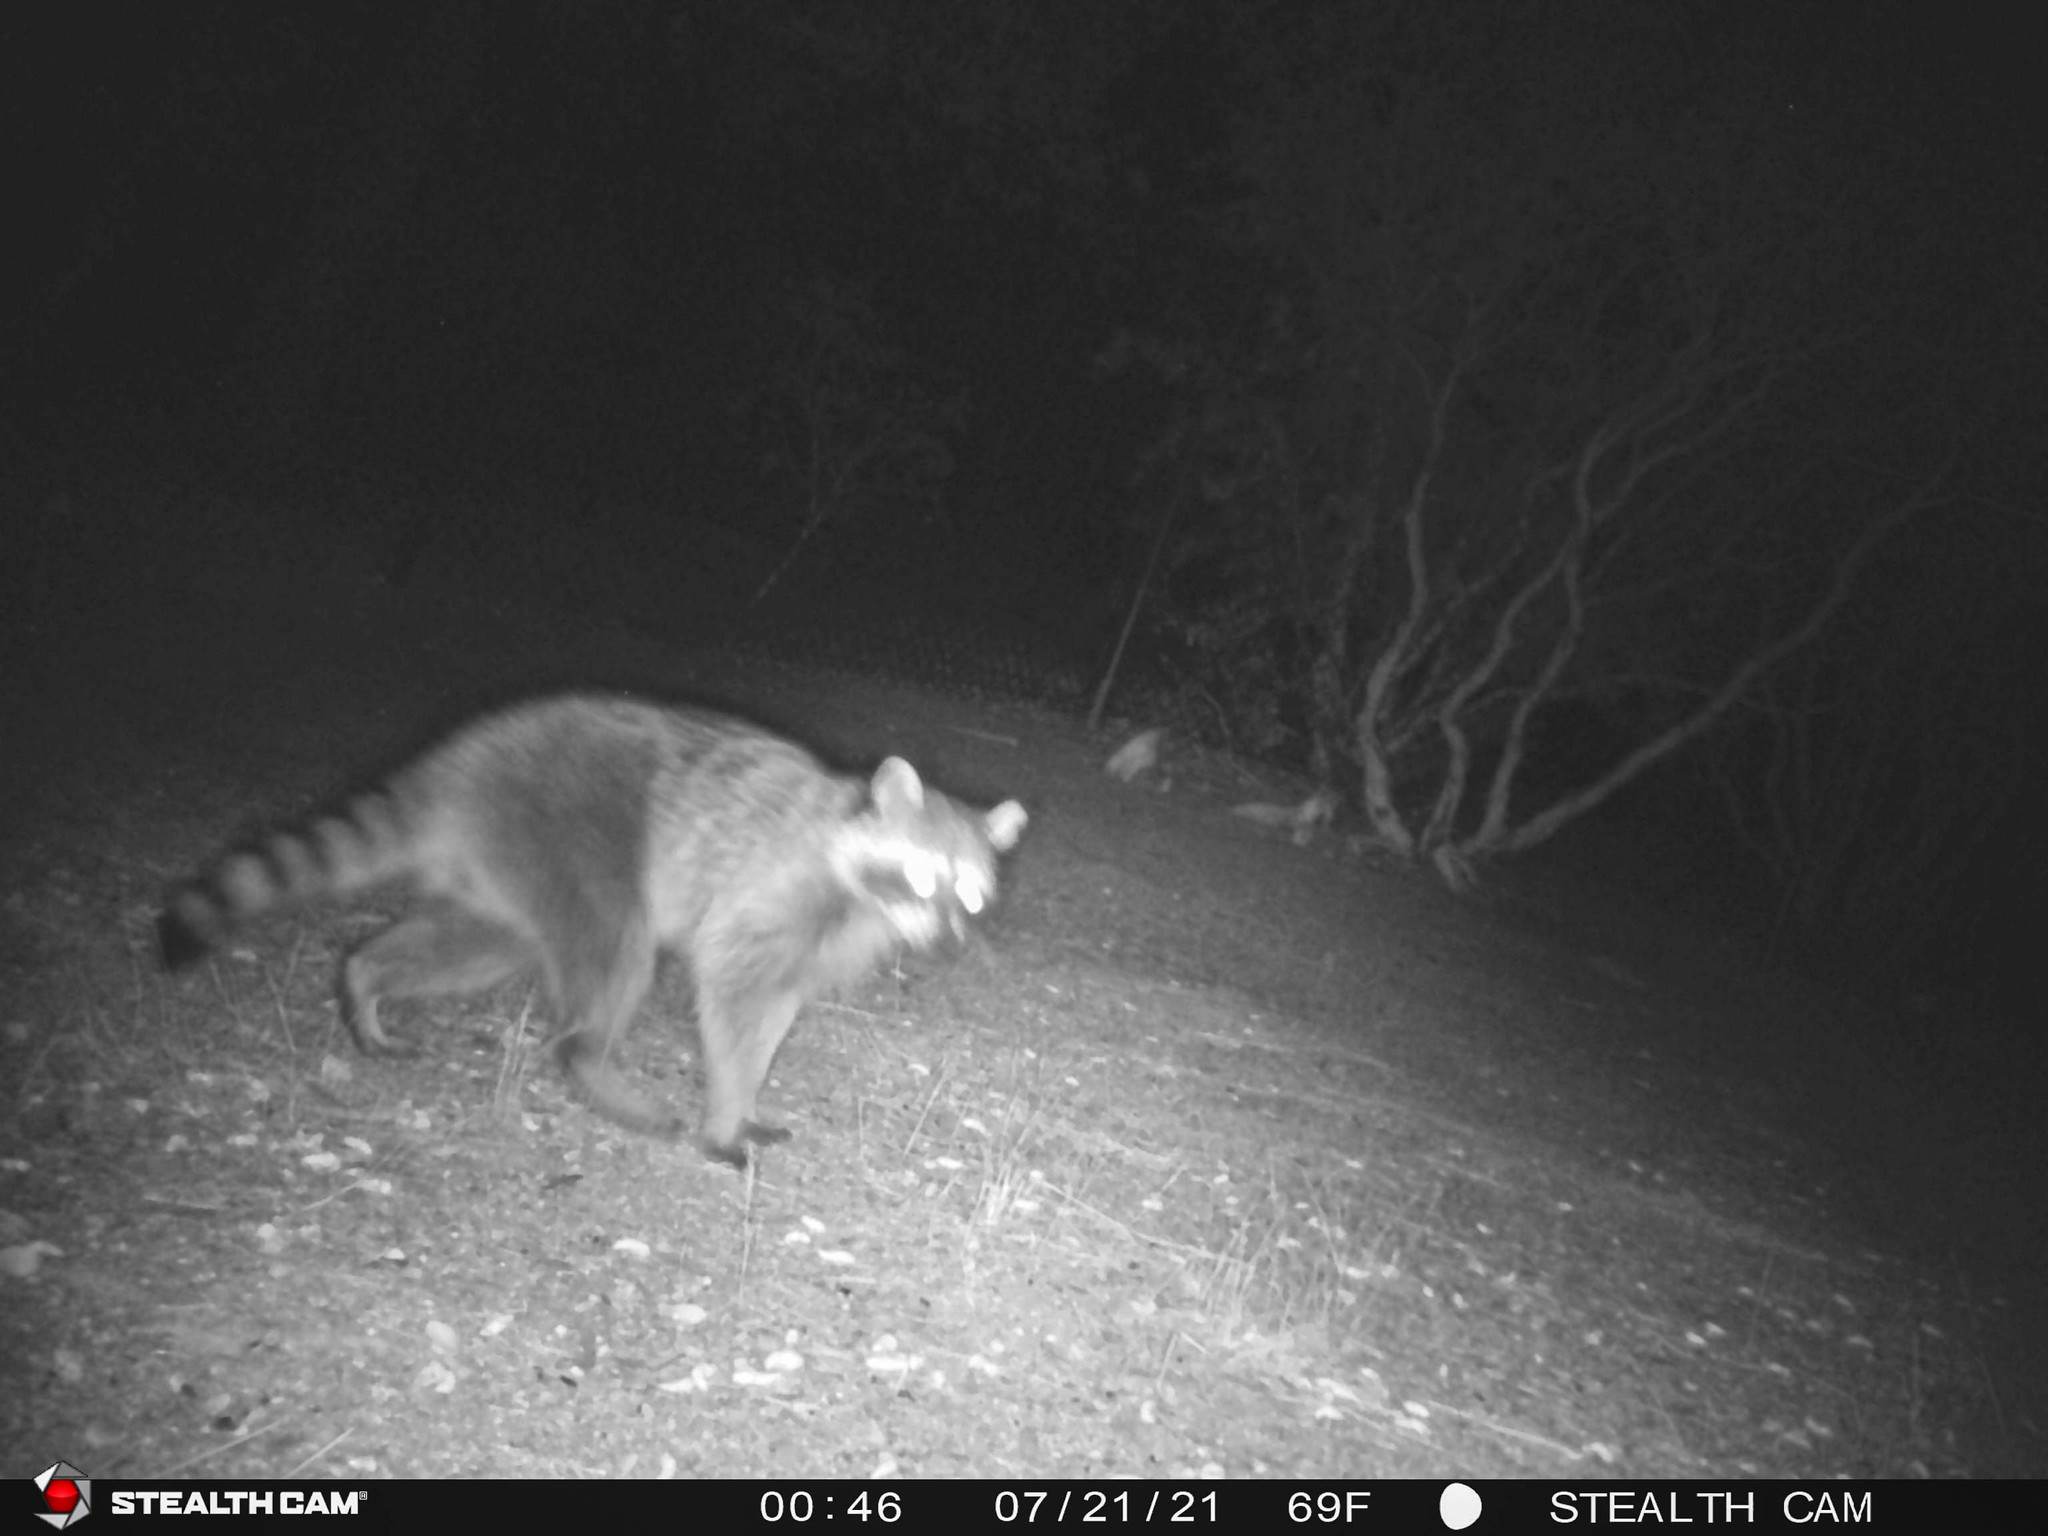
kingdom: Animalia
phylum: Chordata
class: Mammalia
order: Carnivora
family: Procyonidae
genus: Procyon
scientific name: Procyon lotor
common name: Raccoon
